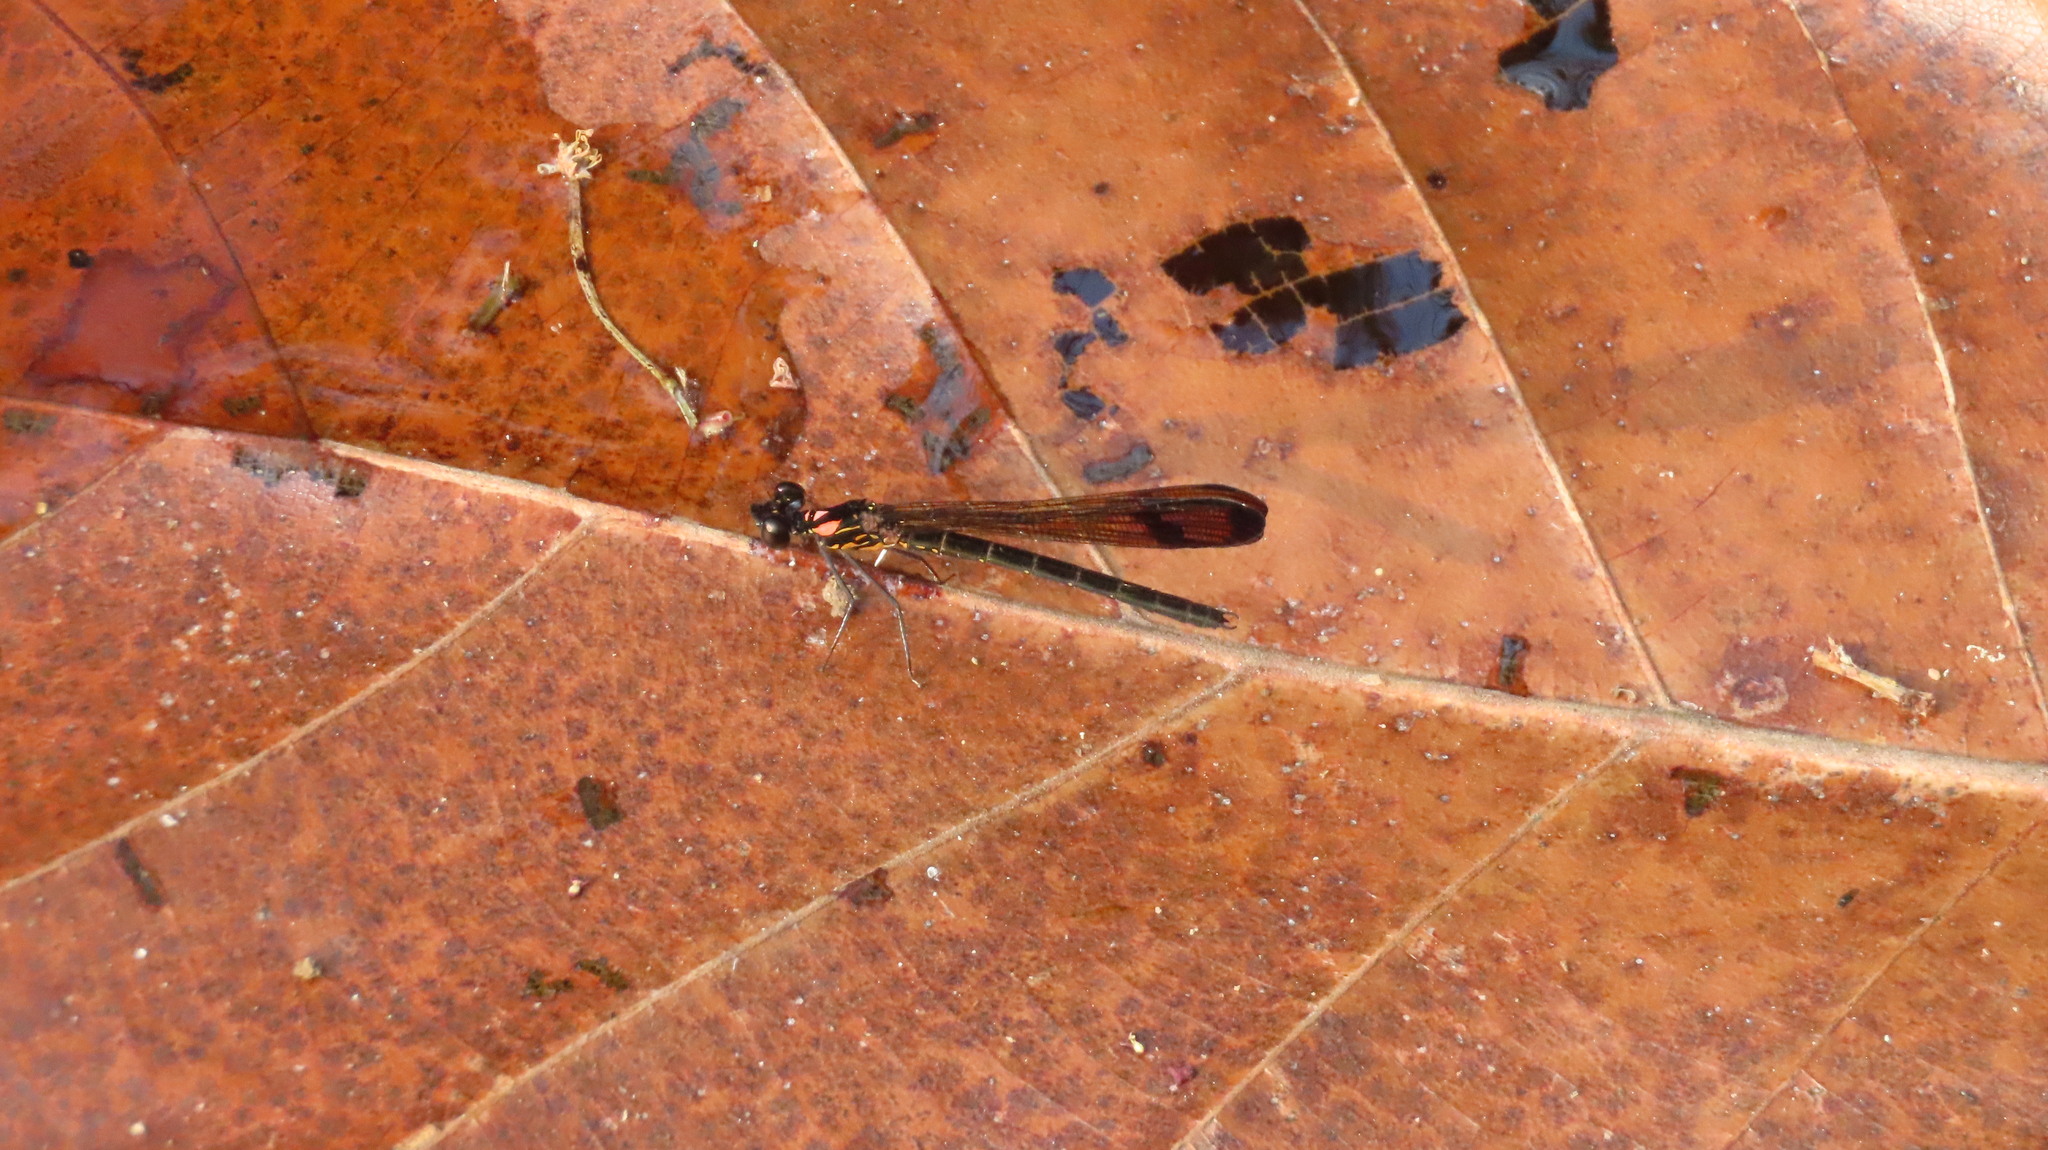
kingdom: Animalia
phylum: Arthropoda
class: Insecta
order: Odonata
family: Chlorocyphidae
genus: Heliocypha
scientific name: Heliocypha bisignata
